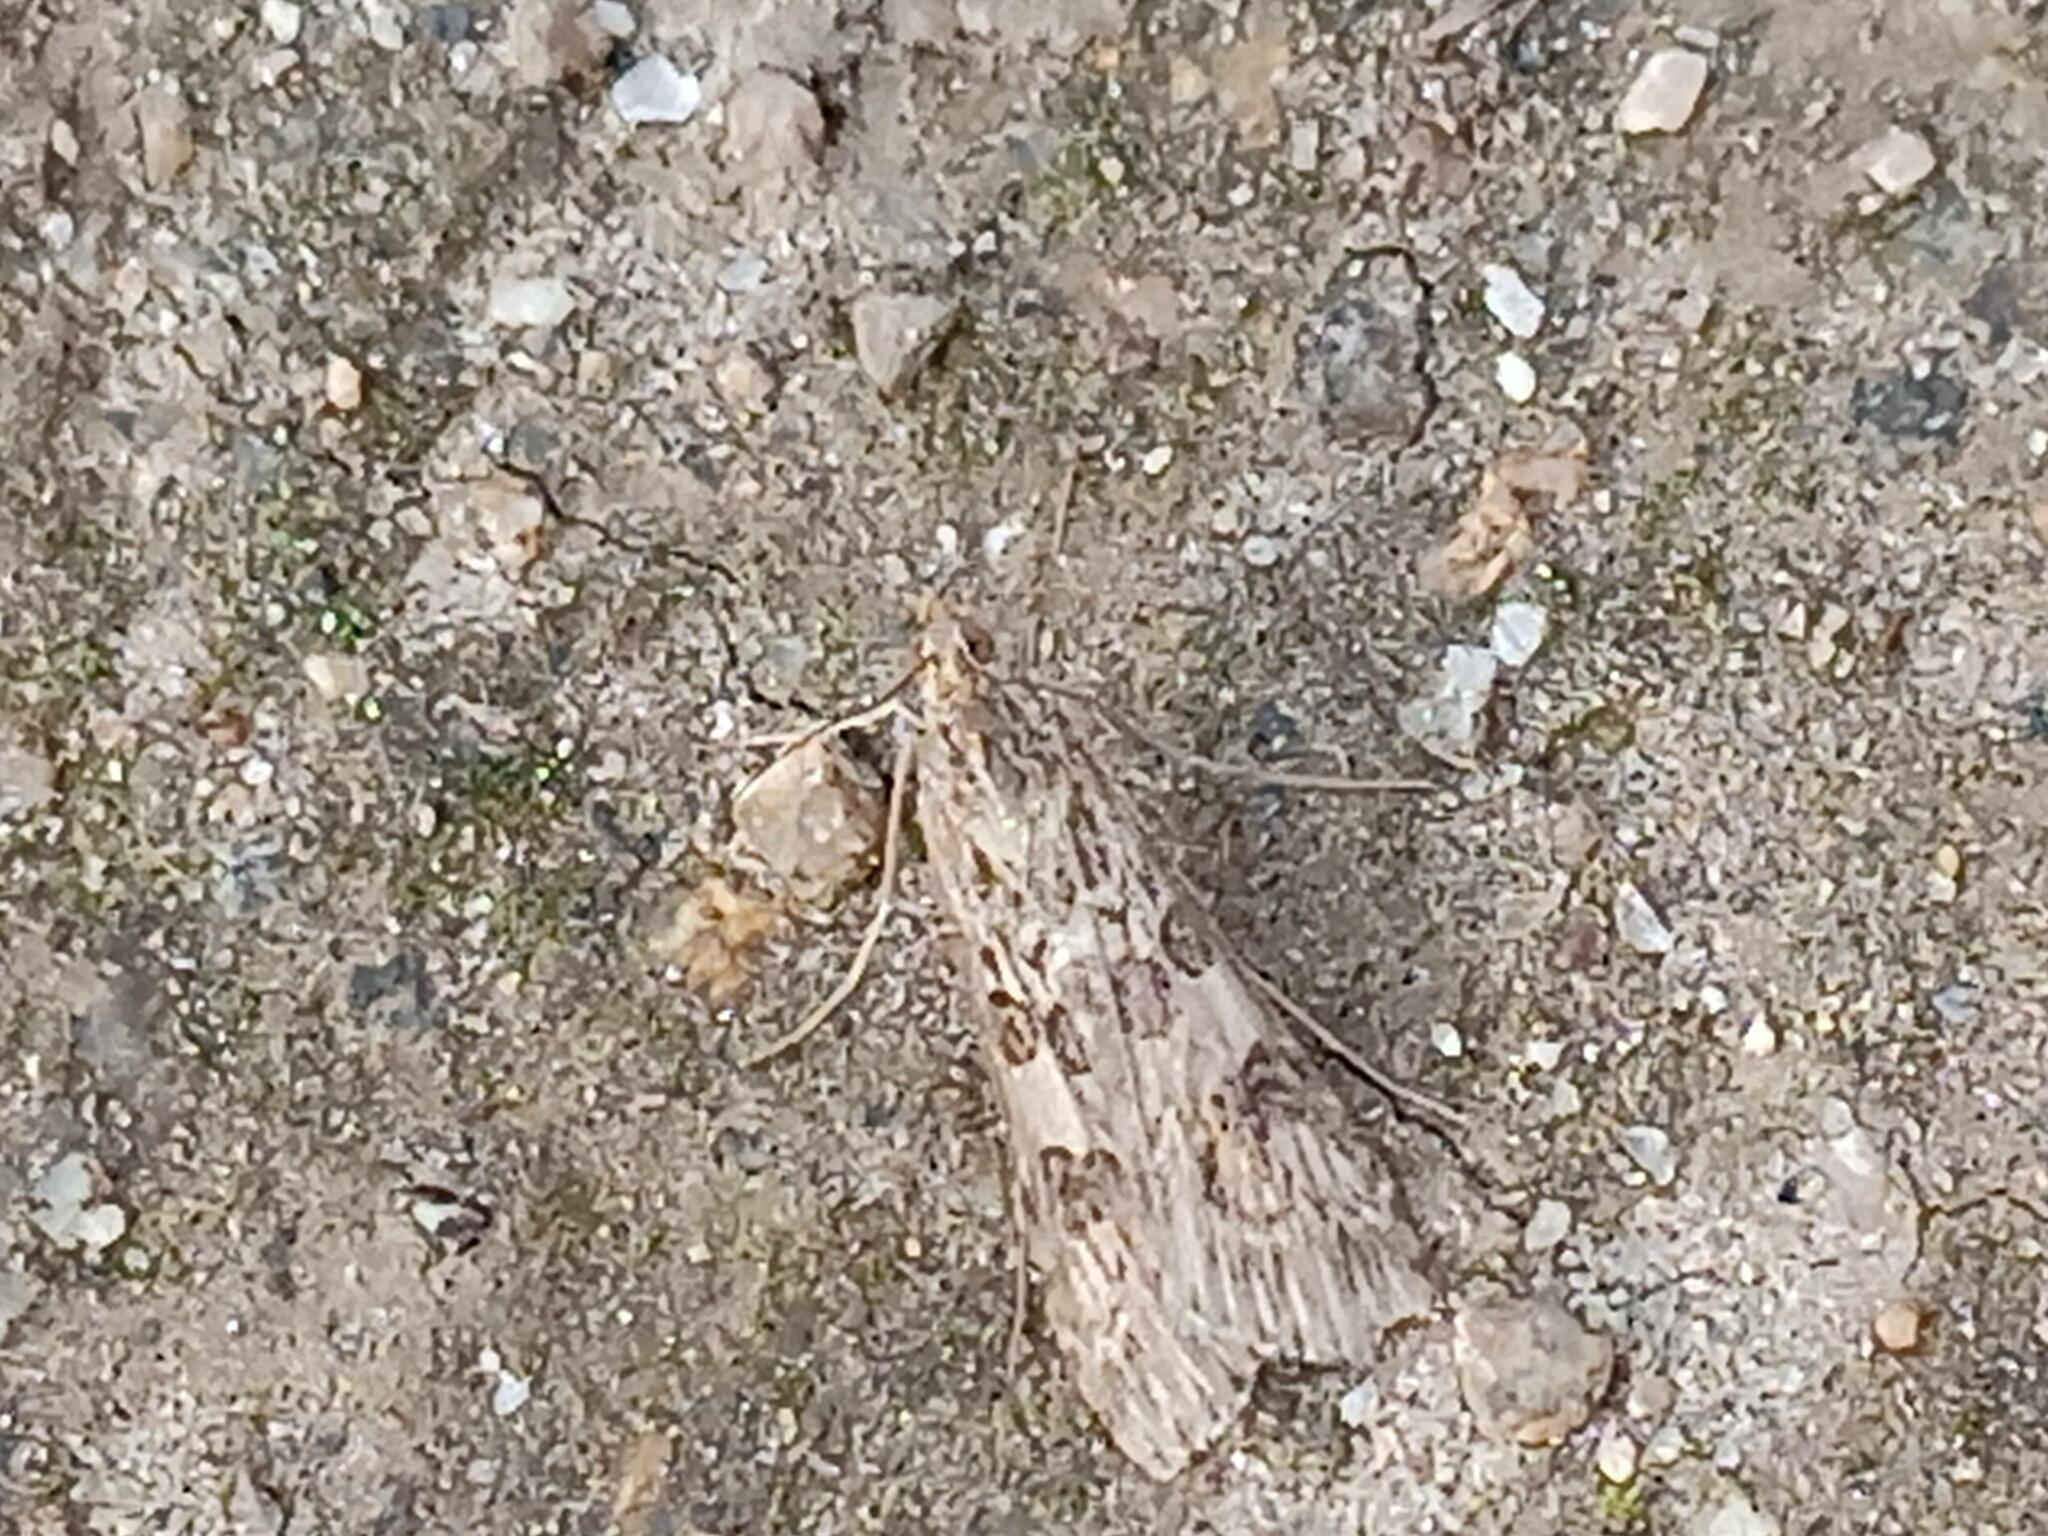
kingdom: Animalia
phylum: Arthropoda
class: Insecta
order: Lepidoptera
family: Crambidae
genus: Nomophila
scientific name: Nomophila noctuella
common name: Rush veneer
